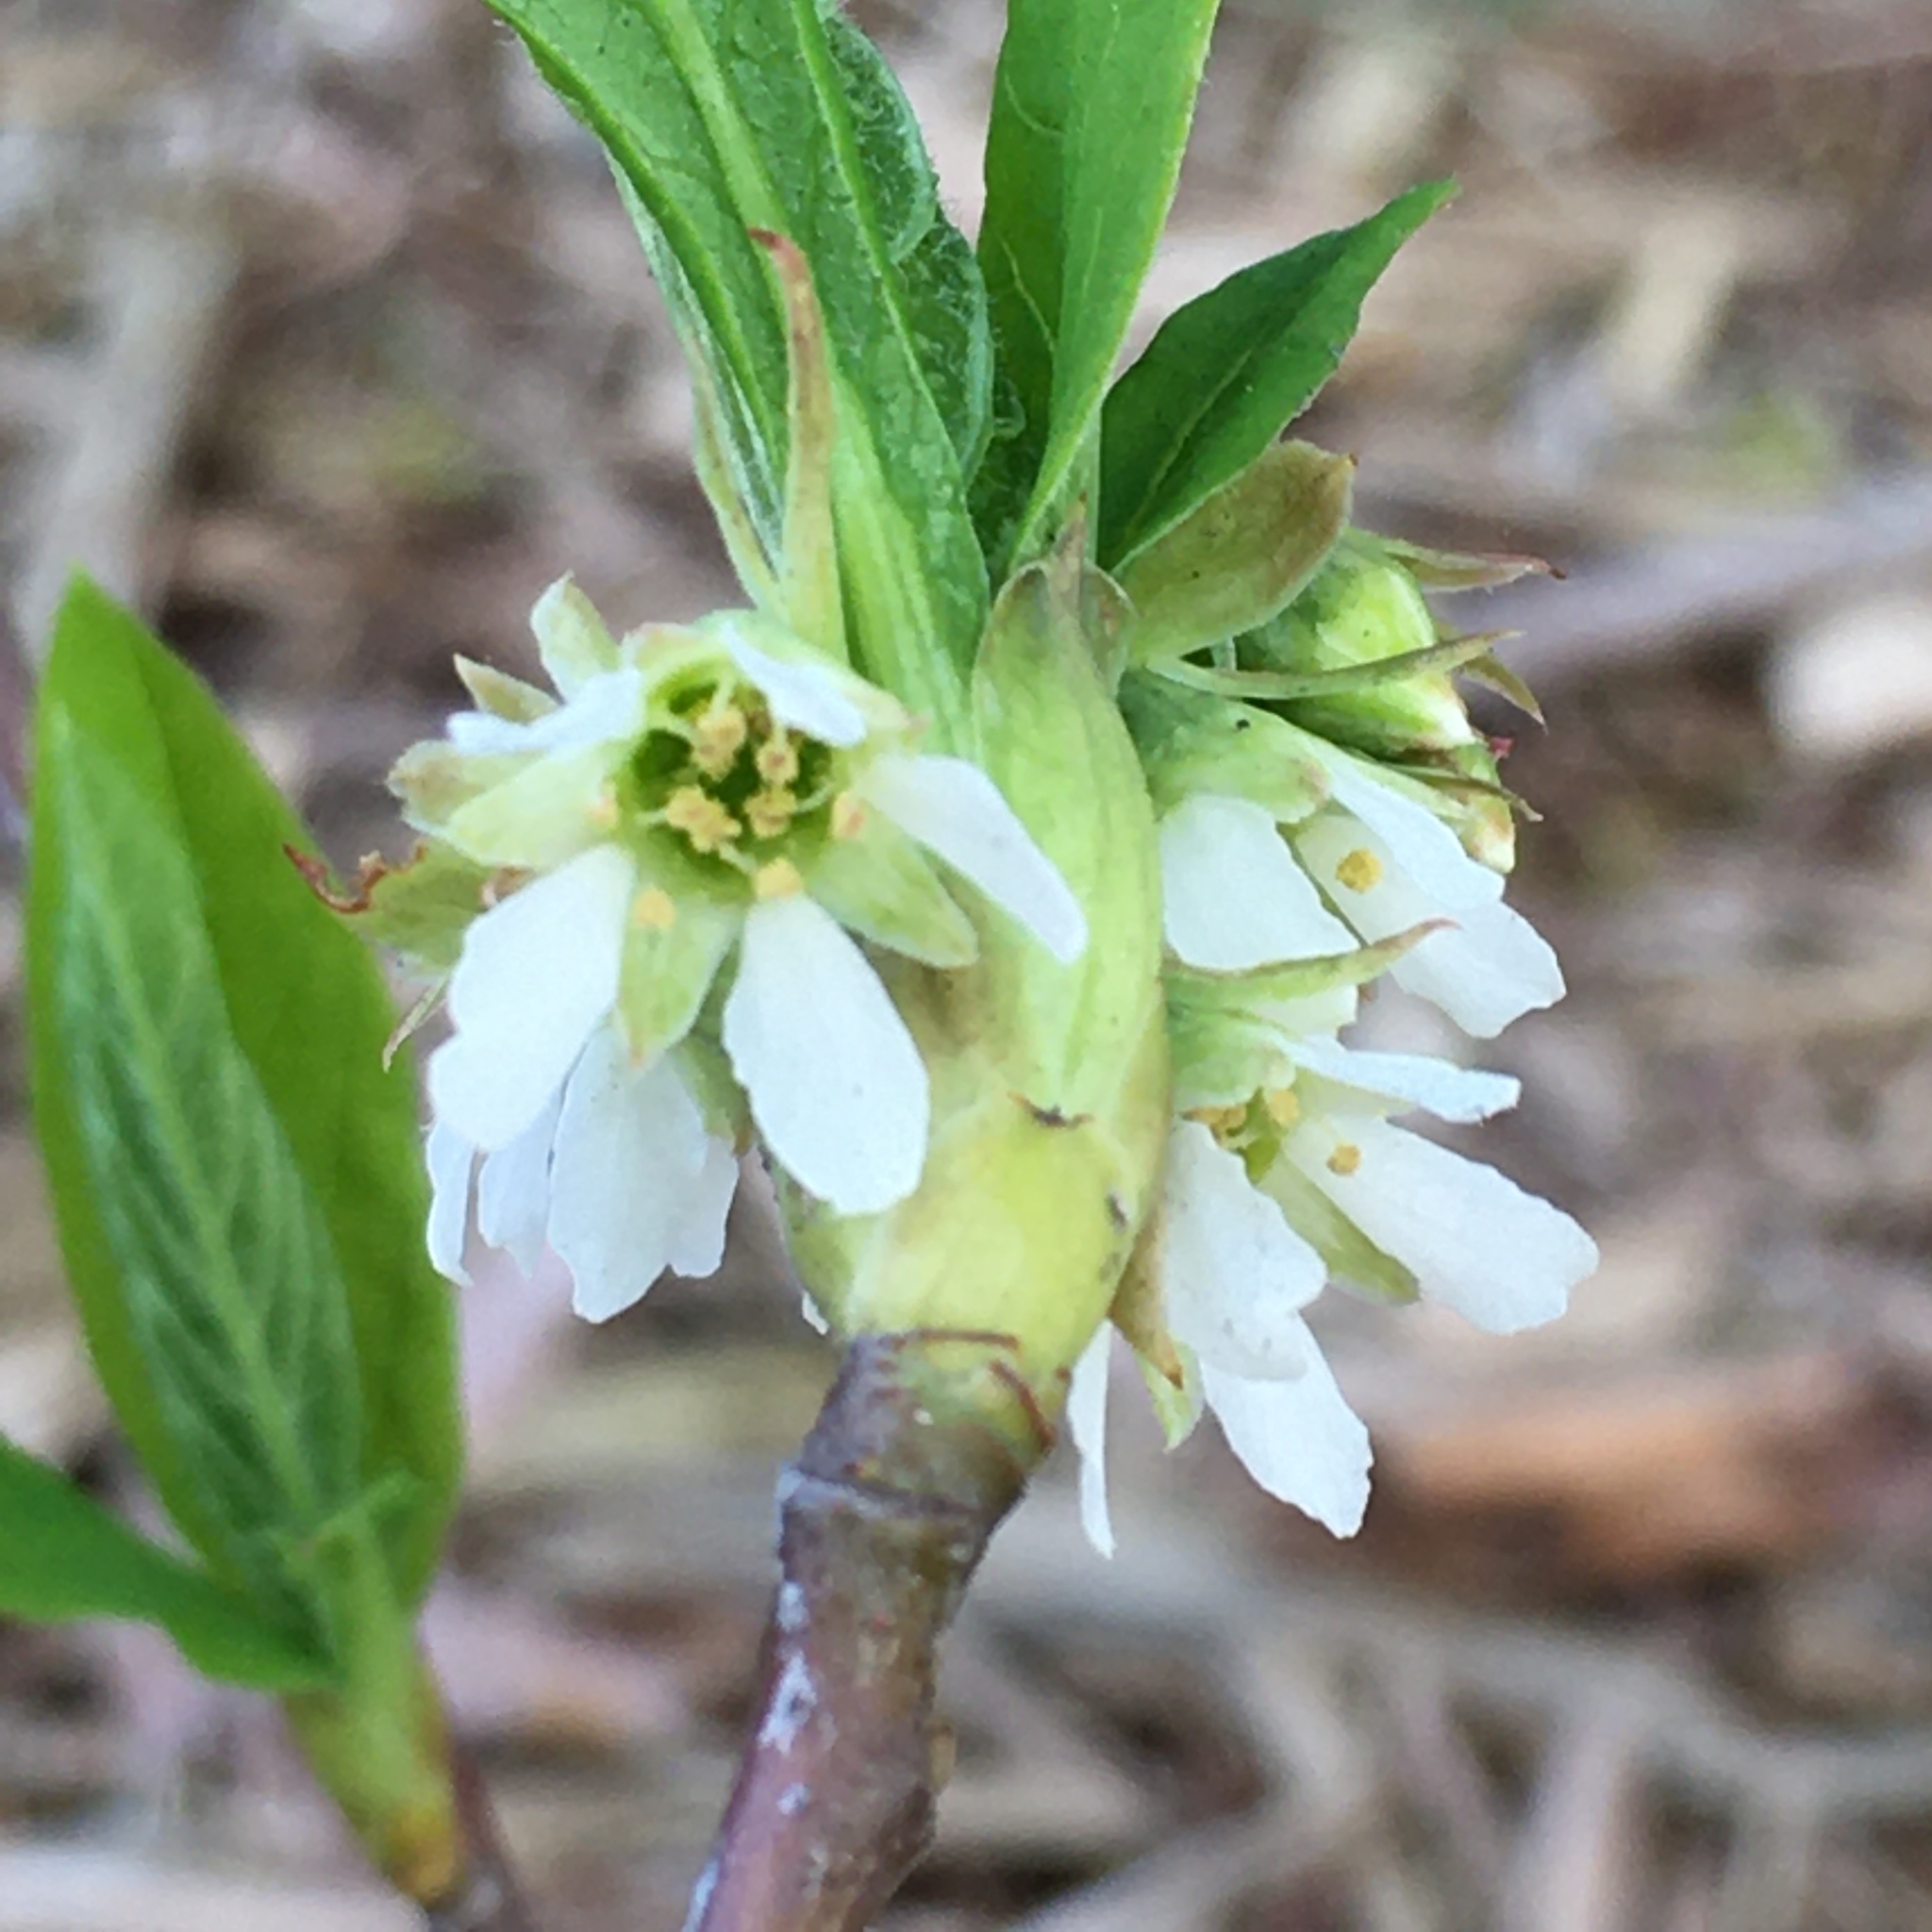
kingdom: Plantae
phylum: Tracheophyta
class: Magnoliopsida
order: Rosales
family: Rosaceae
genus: Oemleria
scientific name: Oemleria cerasiformis
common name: Osoberry
